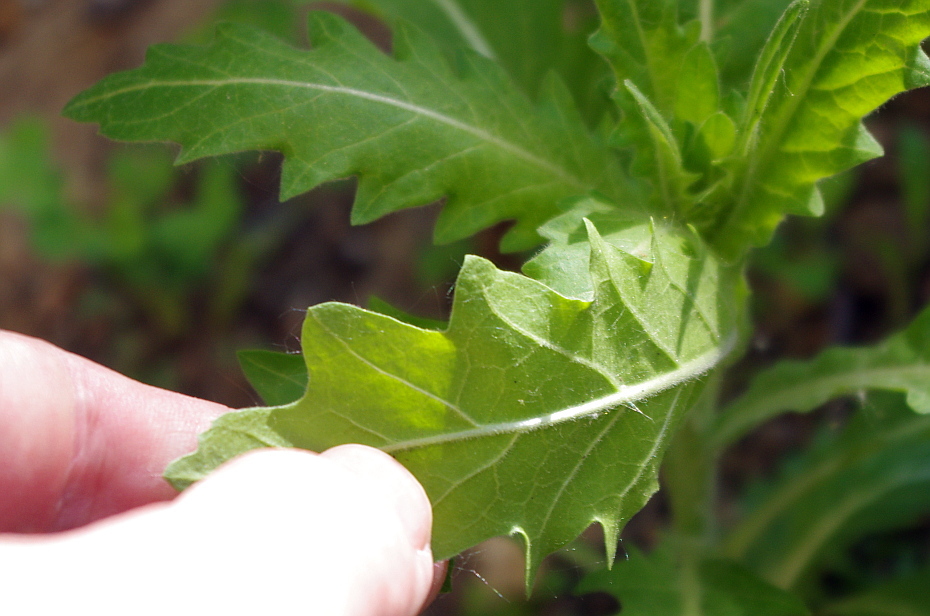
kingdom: Plantae
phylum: Tracheophyta
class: Magnoliopsida
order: Solanales
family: Solanaceae
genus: Hyoscyamus
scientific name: Hyoscyamus niger
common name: Henbane
